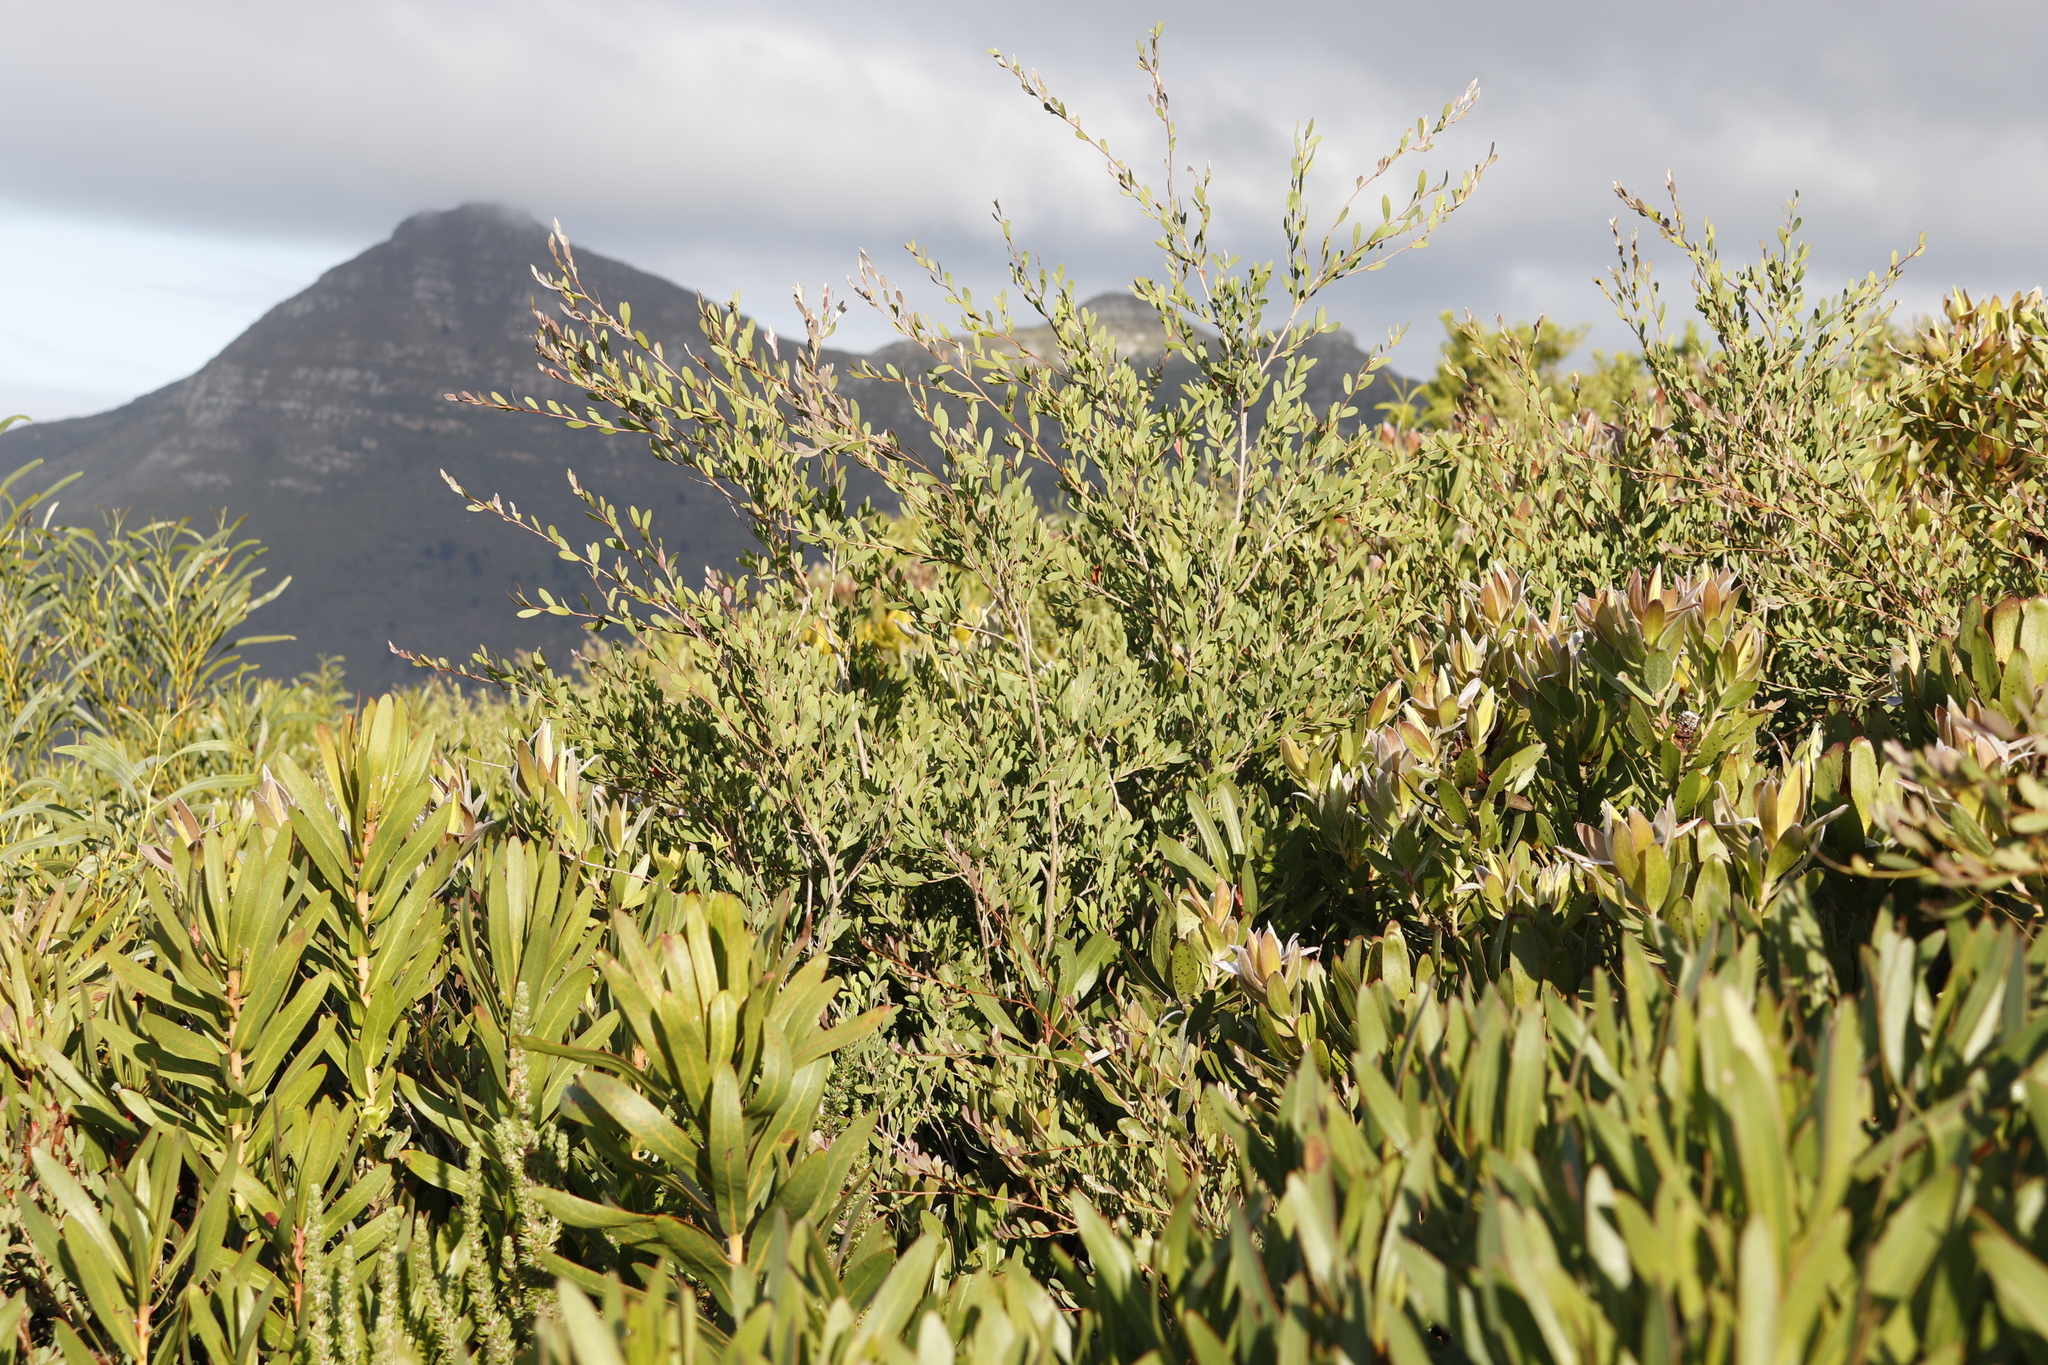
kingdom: Plantae
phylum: Tracheophyta
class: Magnoliopsida
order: Myrtales
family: Myrtaceae
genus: Leptospermum
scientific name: Leptospermum laevigatum
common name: Australian teatree
